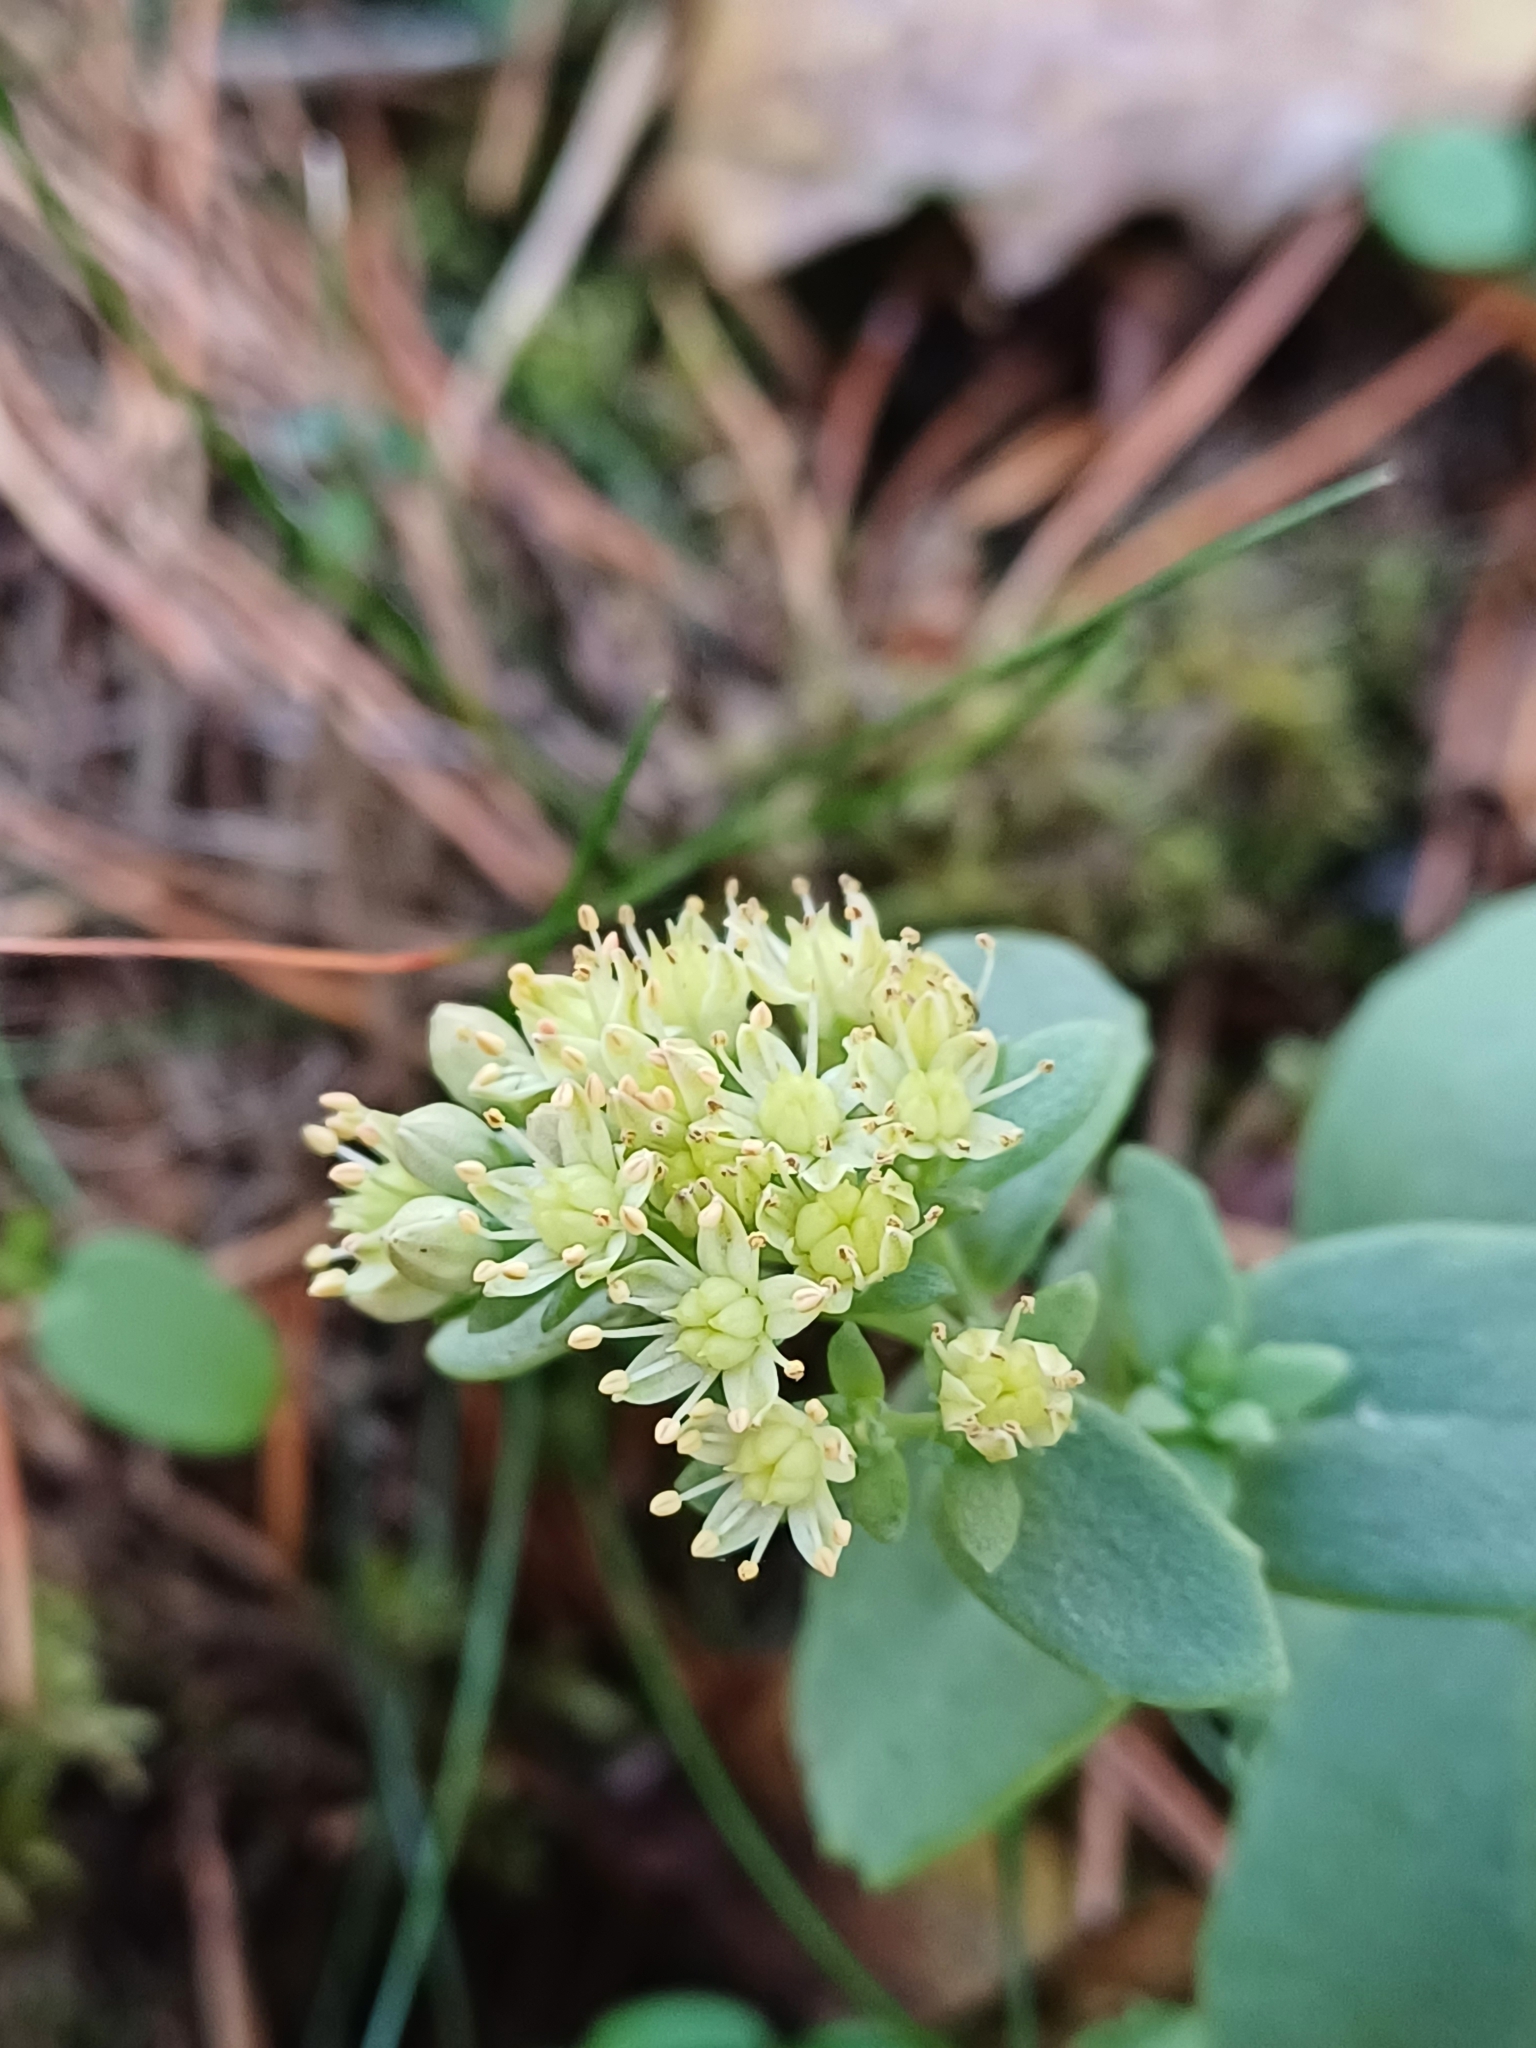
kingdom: Plantae
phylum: Tracheophyta
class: Magnoliopsida
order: Saxifragales
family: Crassulaceae
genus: Hylotelephium
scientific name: Hylotelephium maximum
